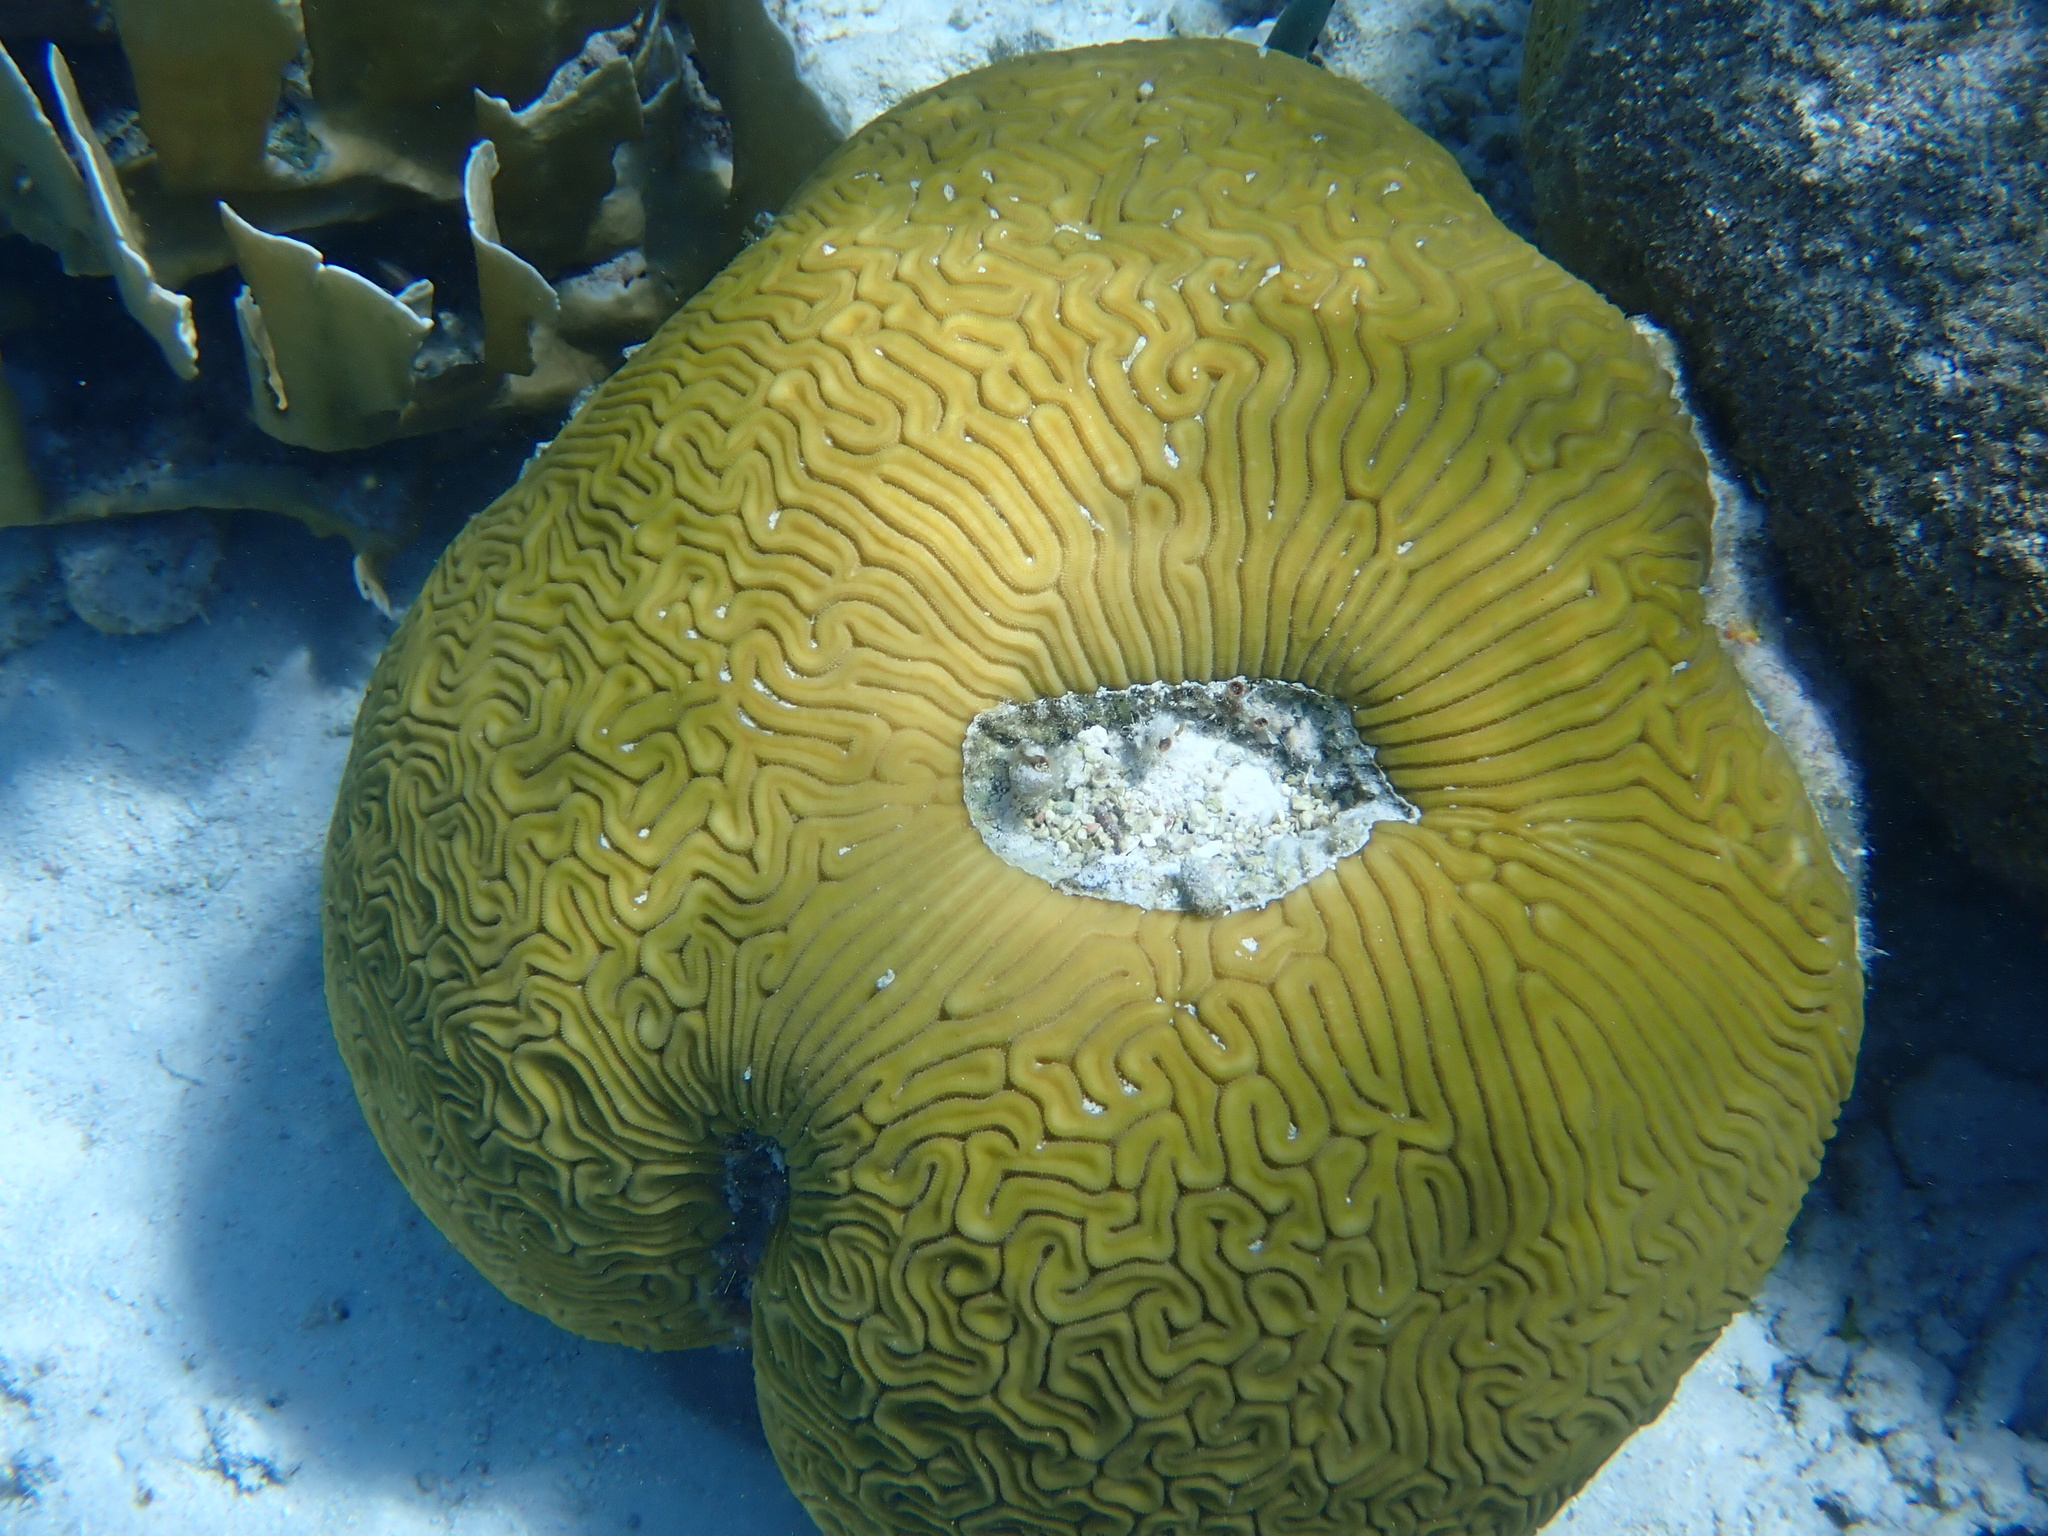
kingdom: Animalia
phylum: Cnidaria
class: Anthozoa
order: Scleractinia
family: Faviidae
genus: Diploria
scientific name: Diploria labyrinthiformis
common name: Grooved brain coral
